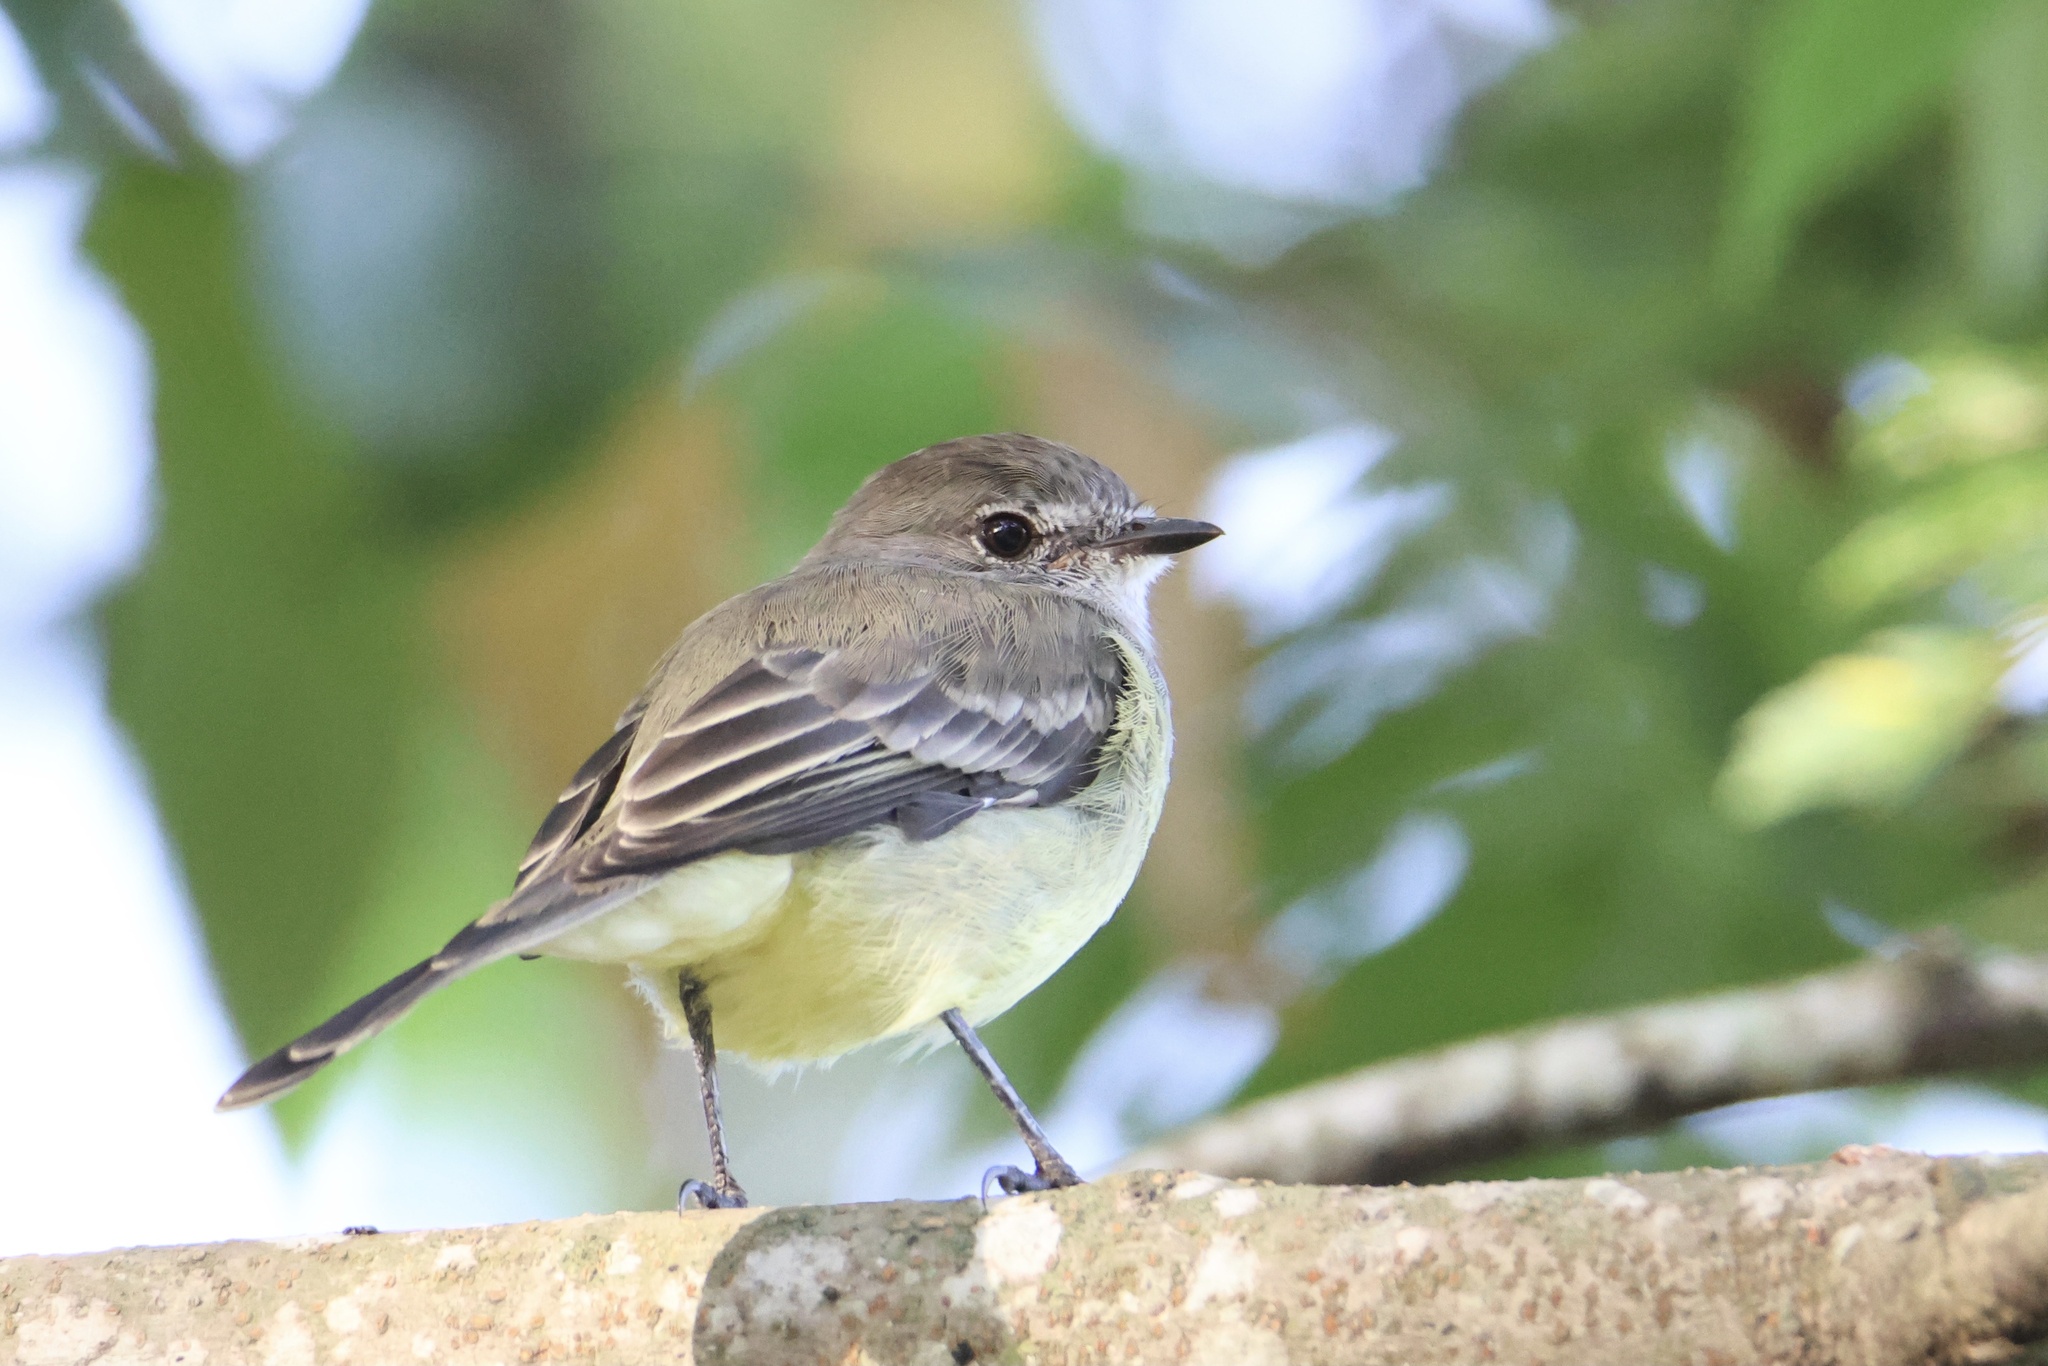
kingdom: Animalia
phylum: Chordata
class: Aves
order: Passeriformes
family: Tyrannidae
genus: Sublegatus
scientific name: Sublegatus arenarum
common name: Northern scrub-flycatcher
